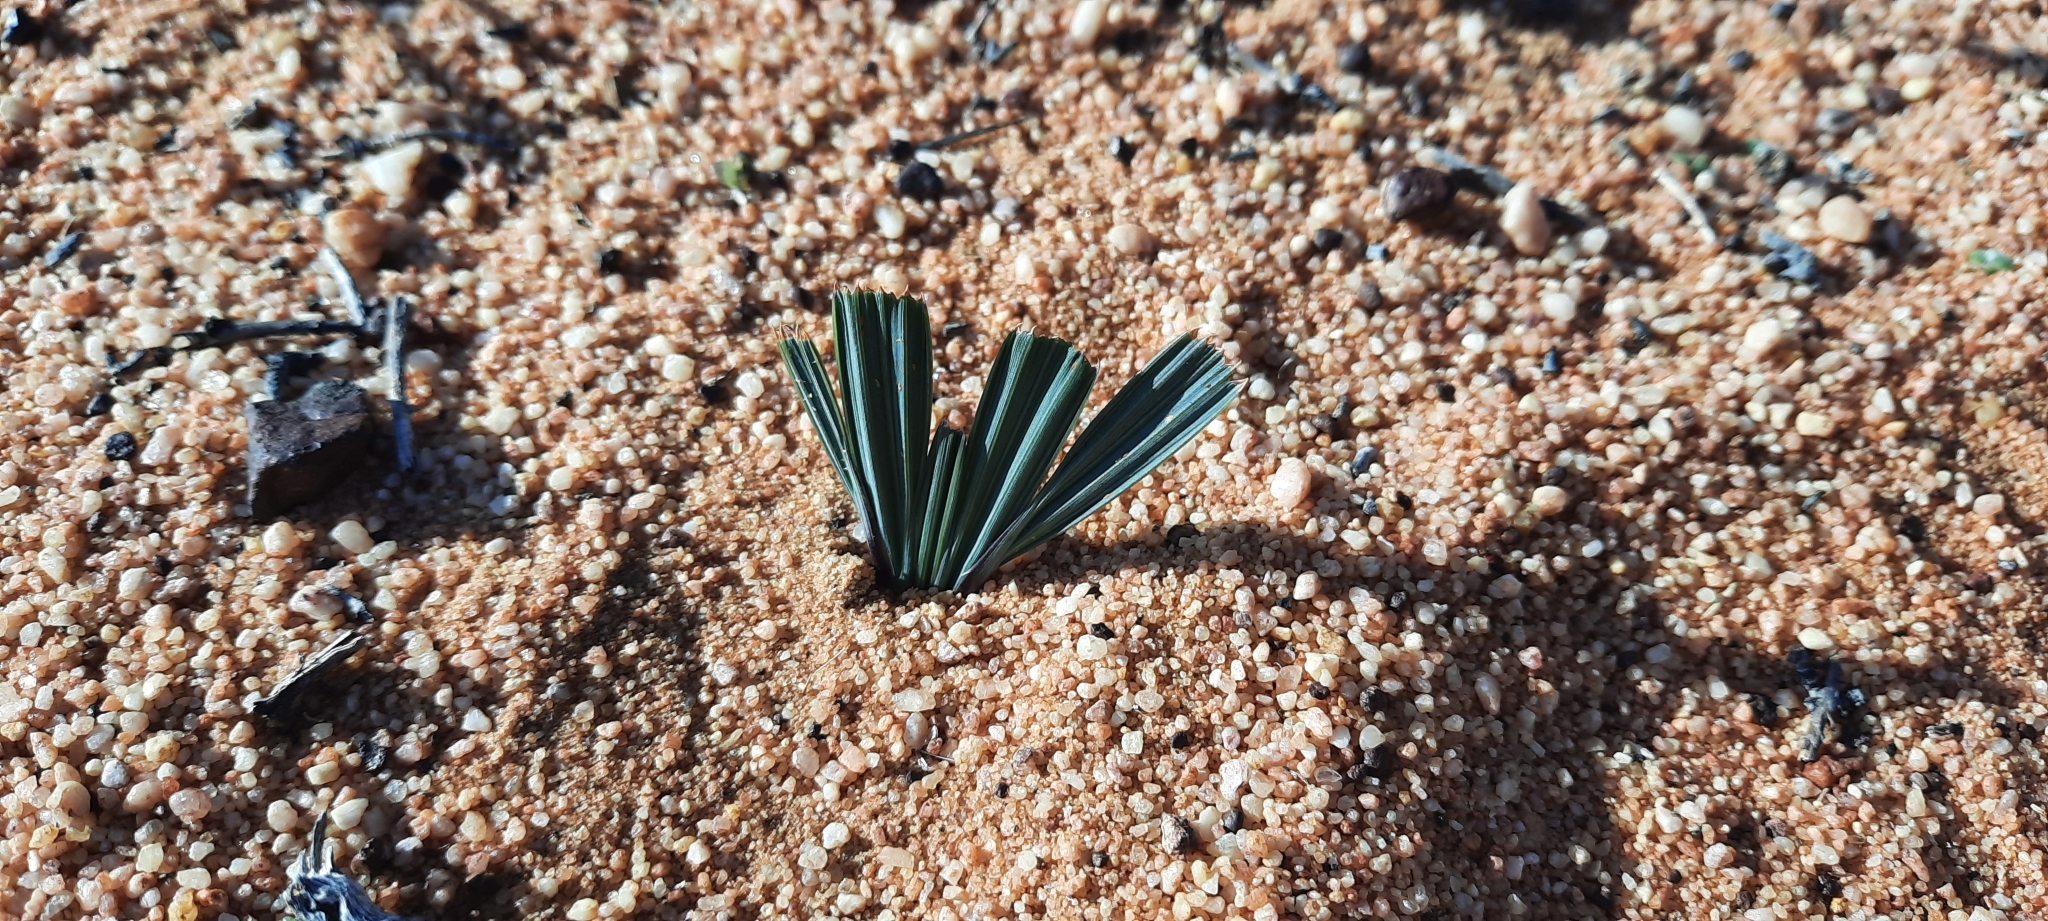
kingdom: Plantae
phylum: Tracheophyta
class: Liliopsida
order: Asparagales
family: Iridaceae
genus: Babiana
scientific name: Babiana cuneata
